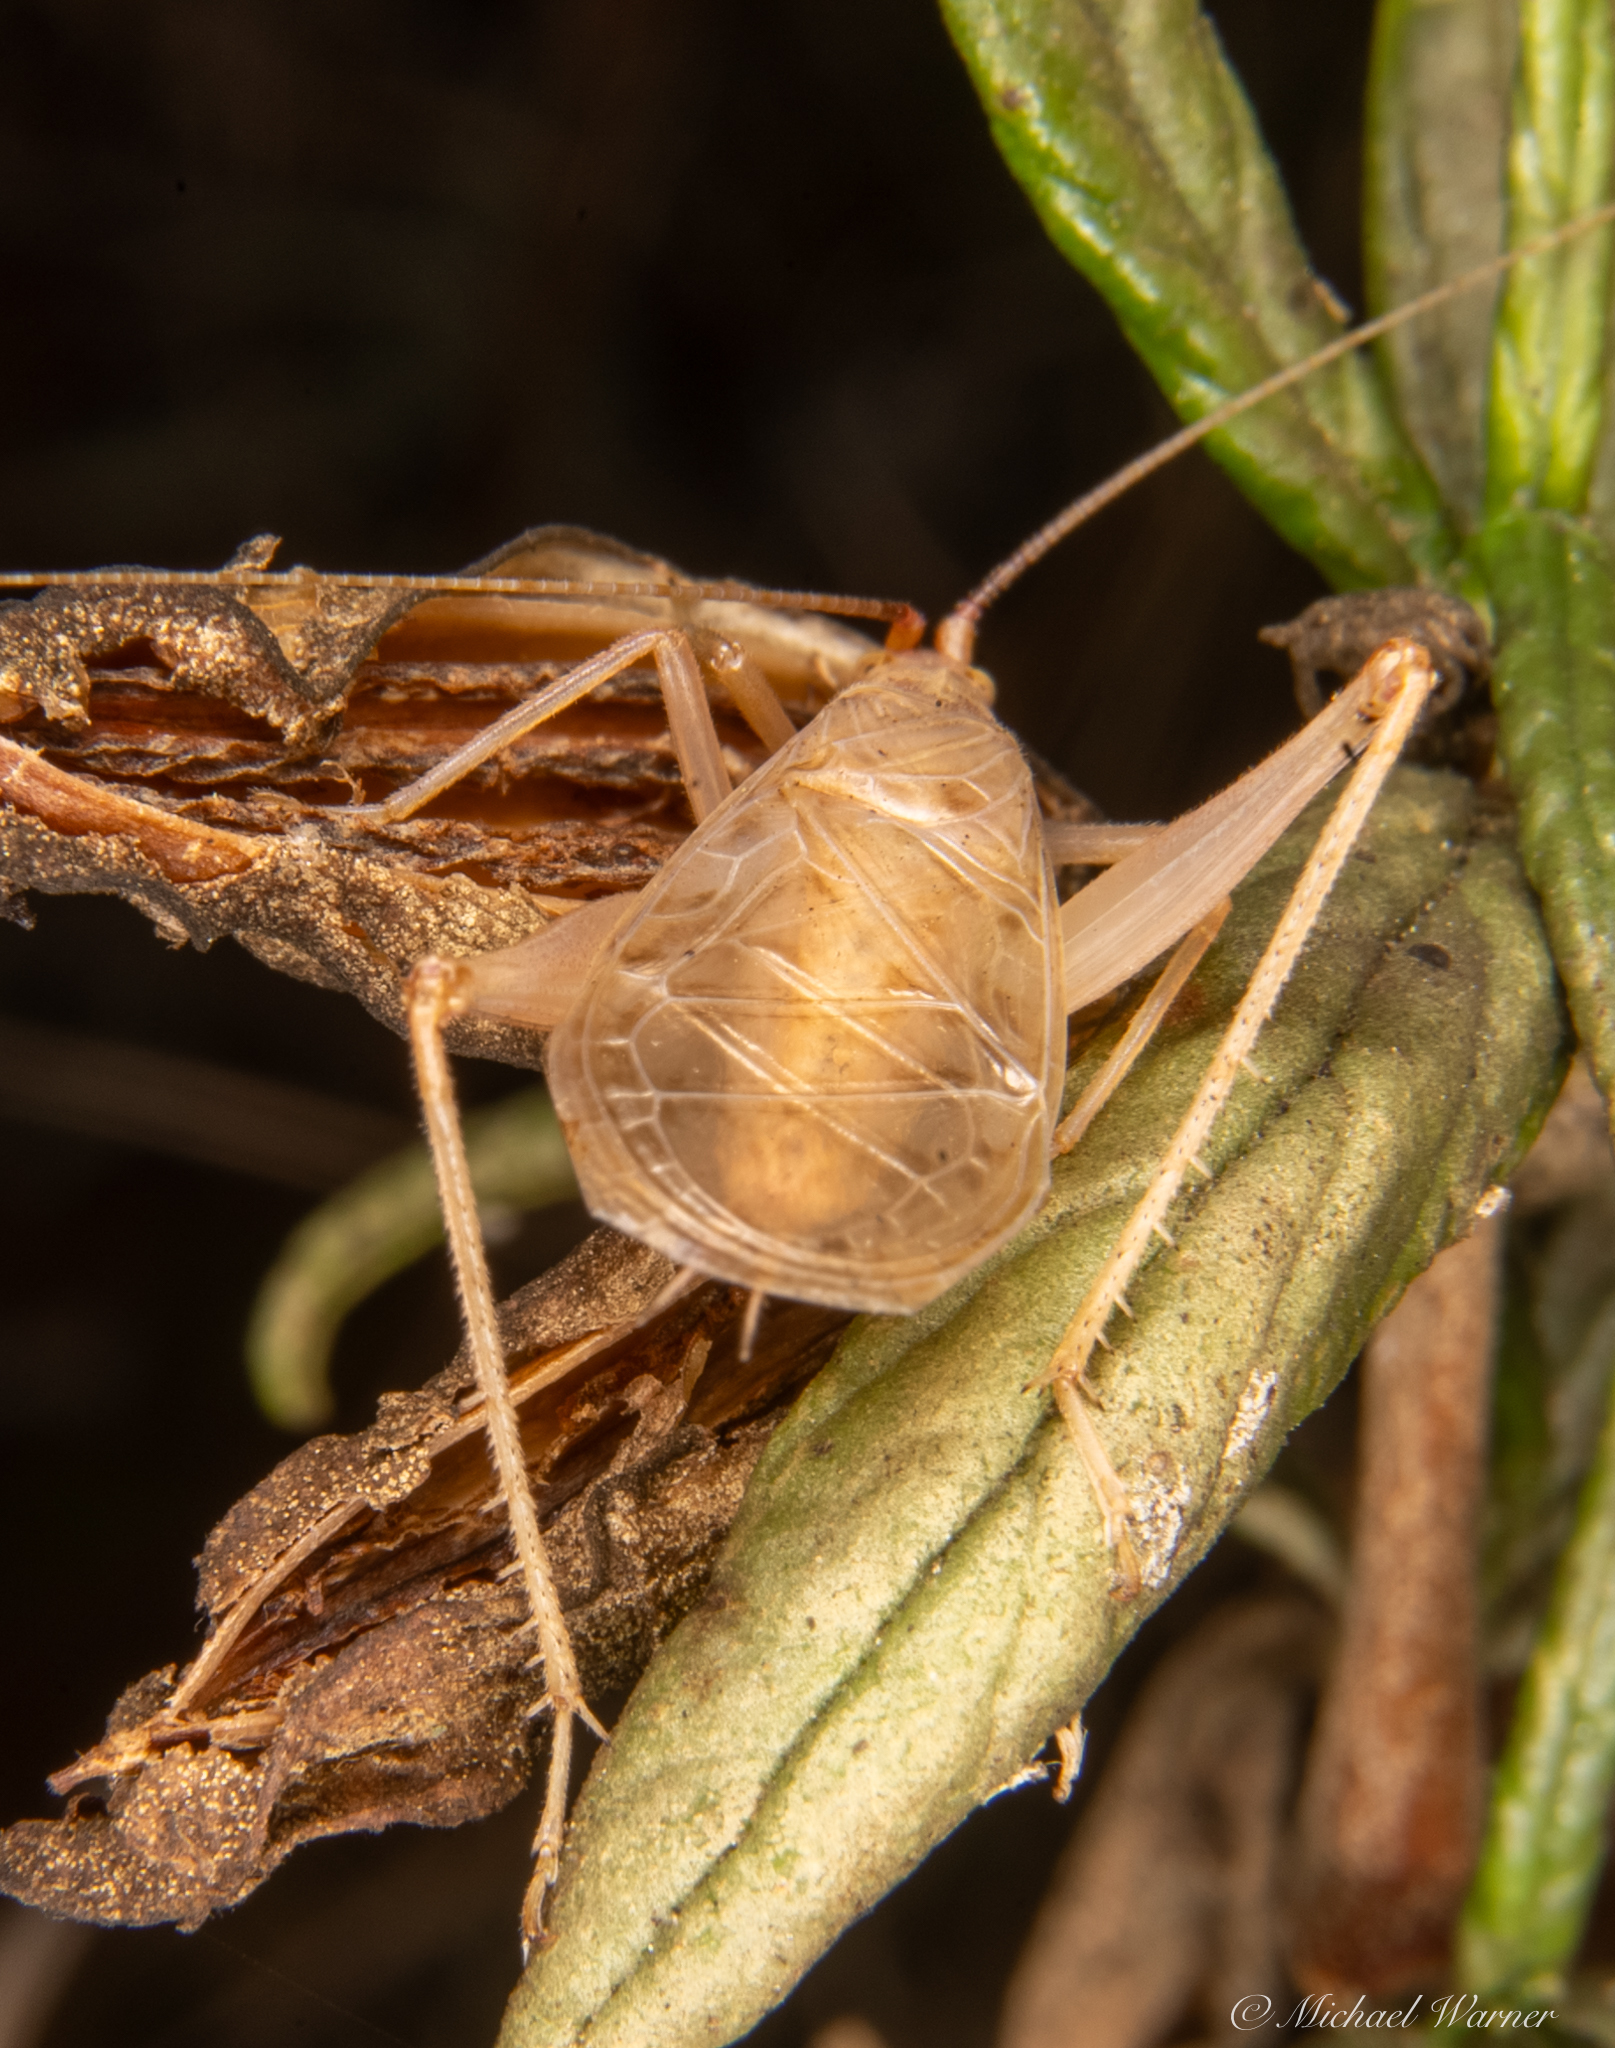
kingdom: Animalia
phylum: Arthropoda
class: Insecta
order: Orthoptera
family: Gryllidae
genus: Oecanthus
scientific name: Oecanthus californicus
